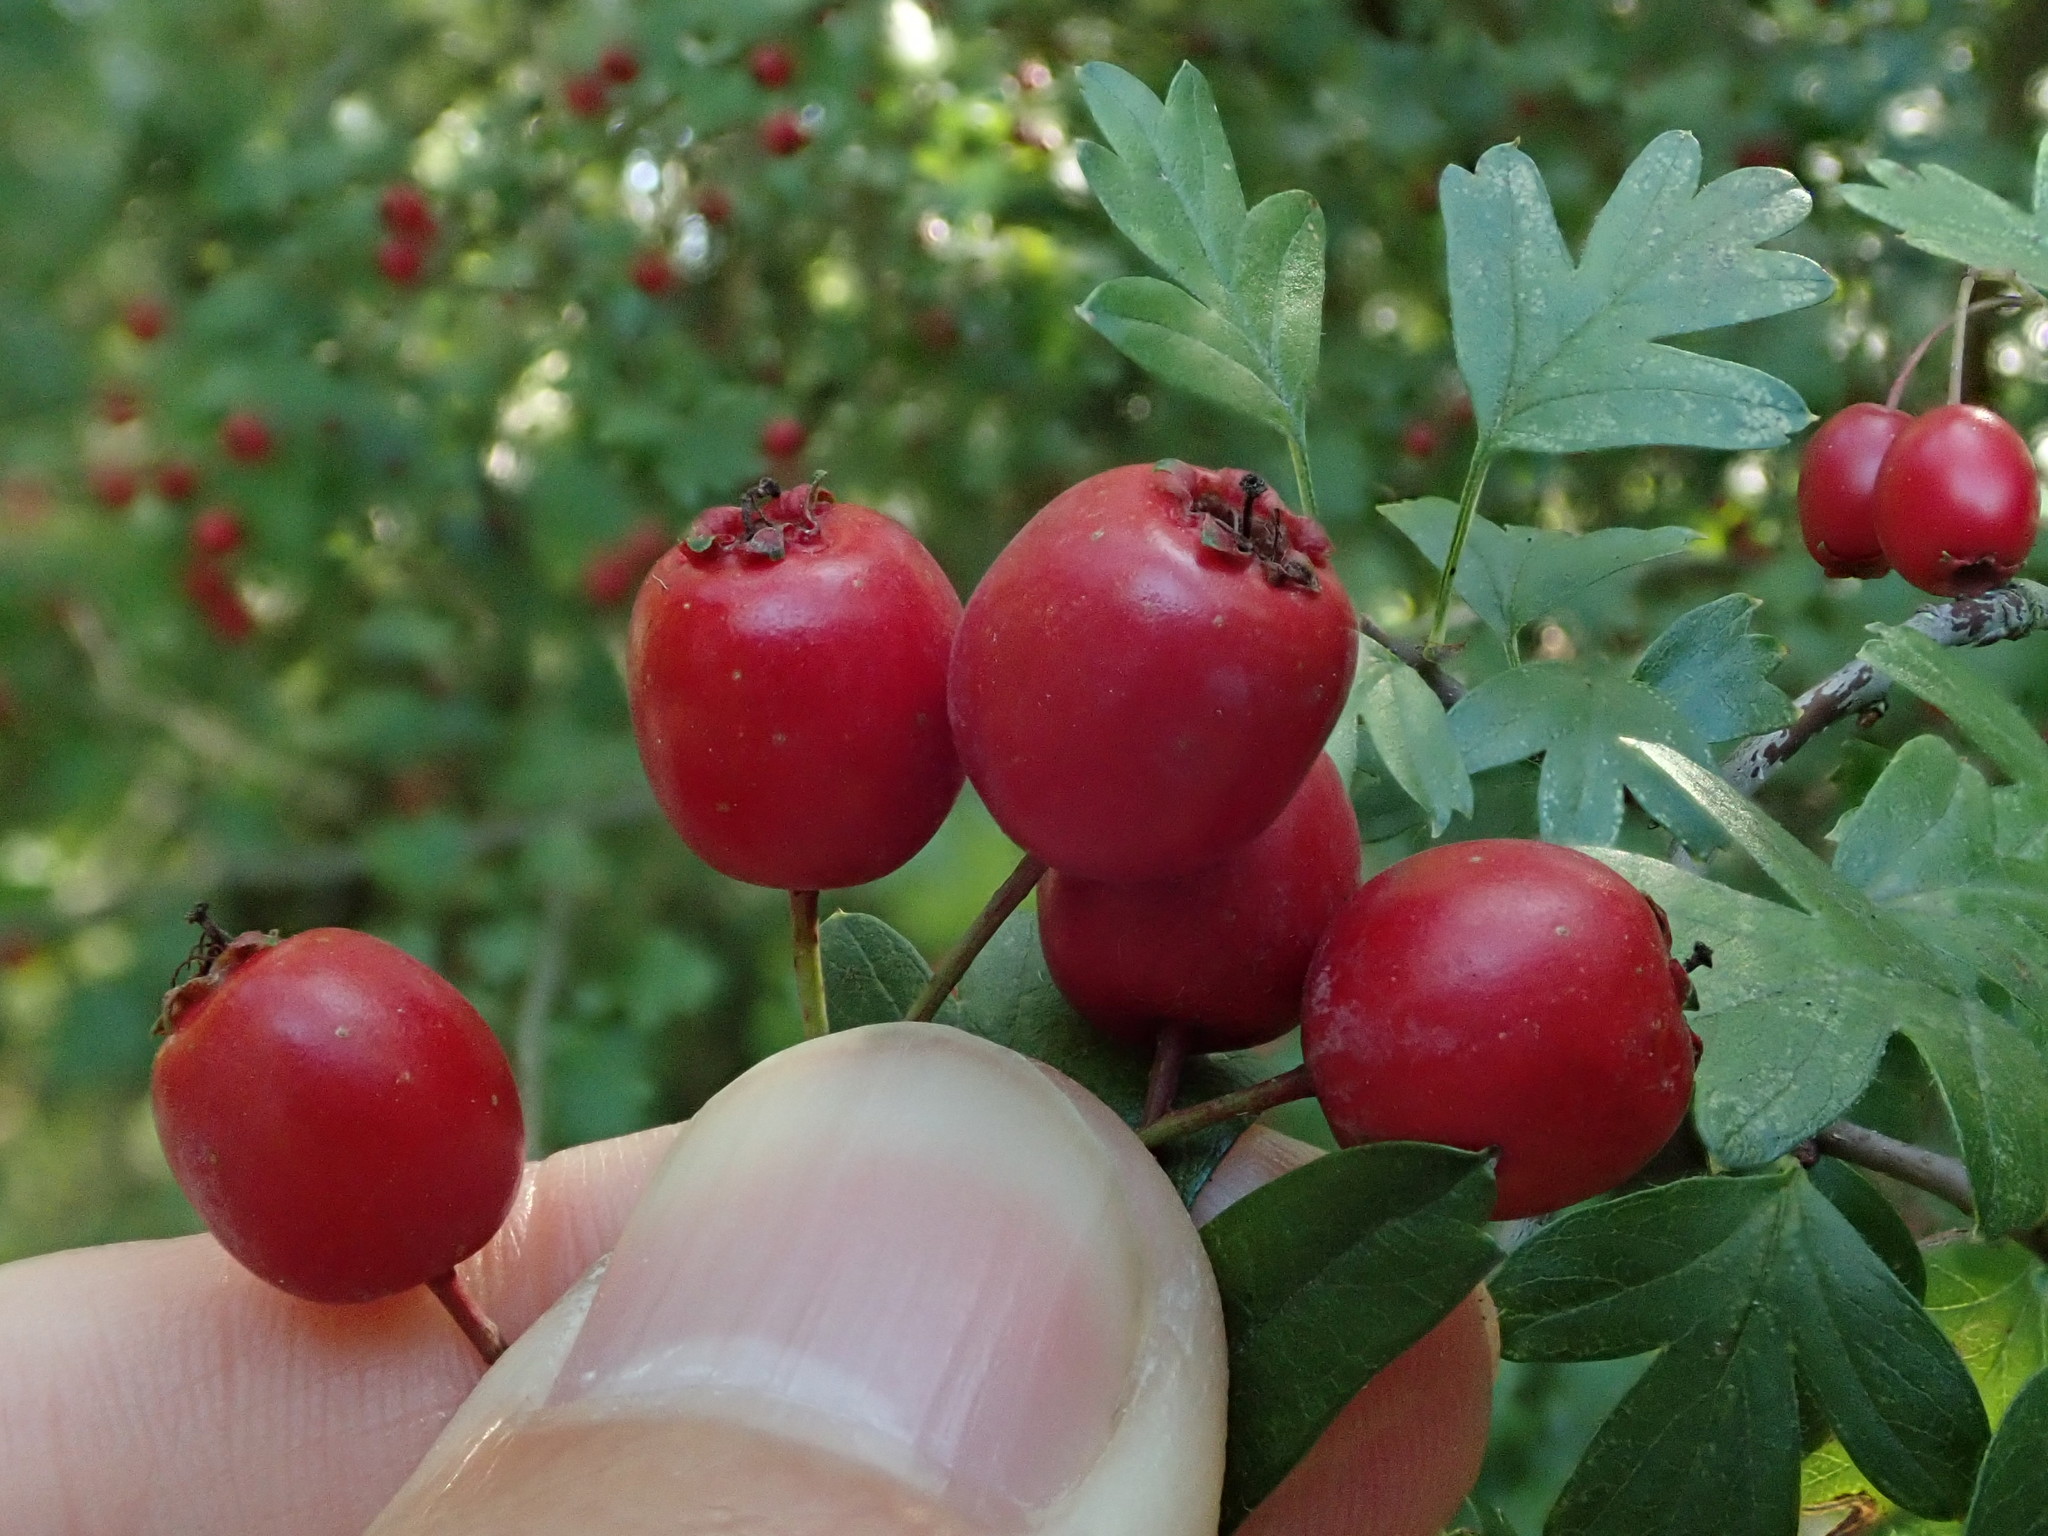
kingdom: Plantae
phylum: Tracheophyta
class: Magnoliopsida
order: Rosales
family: Rosaceae
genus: Crataegus
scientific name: Crataegus monogyna
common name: Hawthorn
